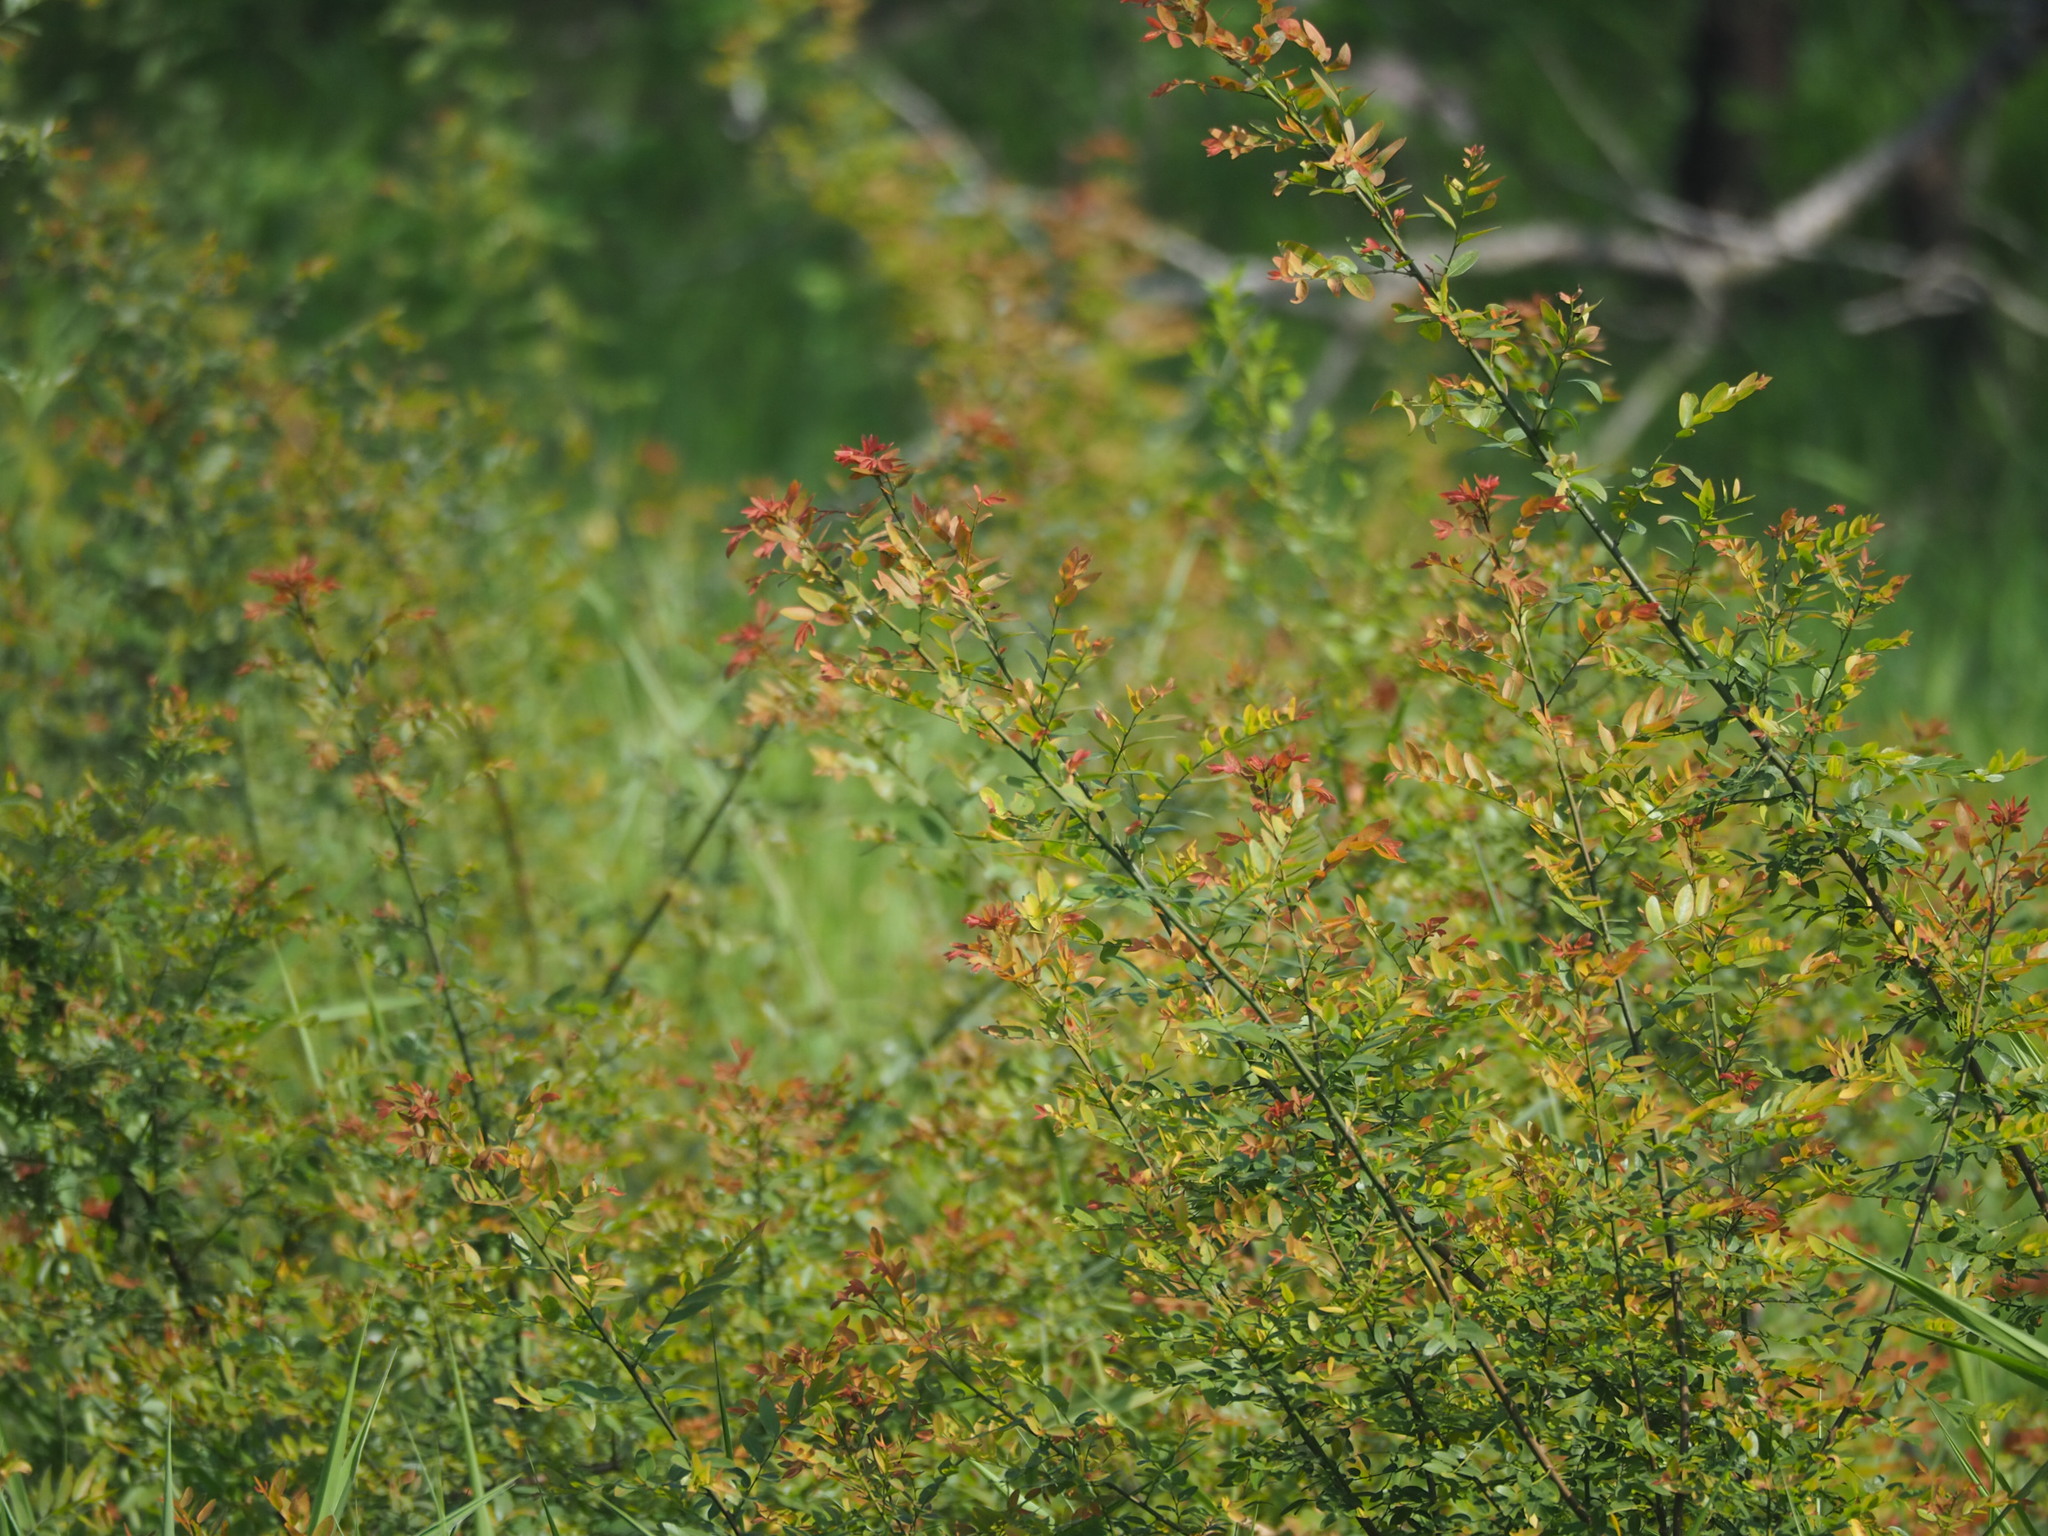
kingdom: Plantae
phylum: Tracheophyta
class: Magnoliopsida
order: Malpighiales
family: Phyllanthaceae
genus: Phyllanthus
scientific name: Phyllanthus reticulatus
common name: Potato bush
